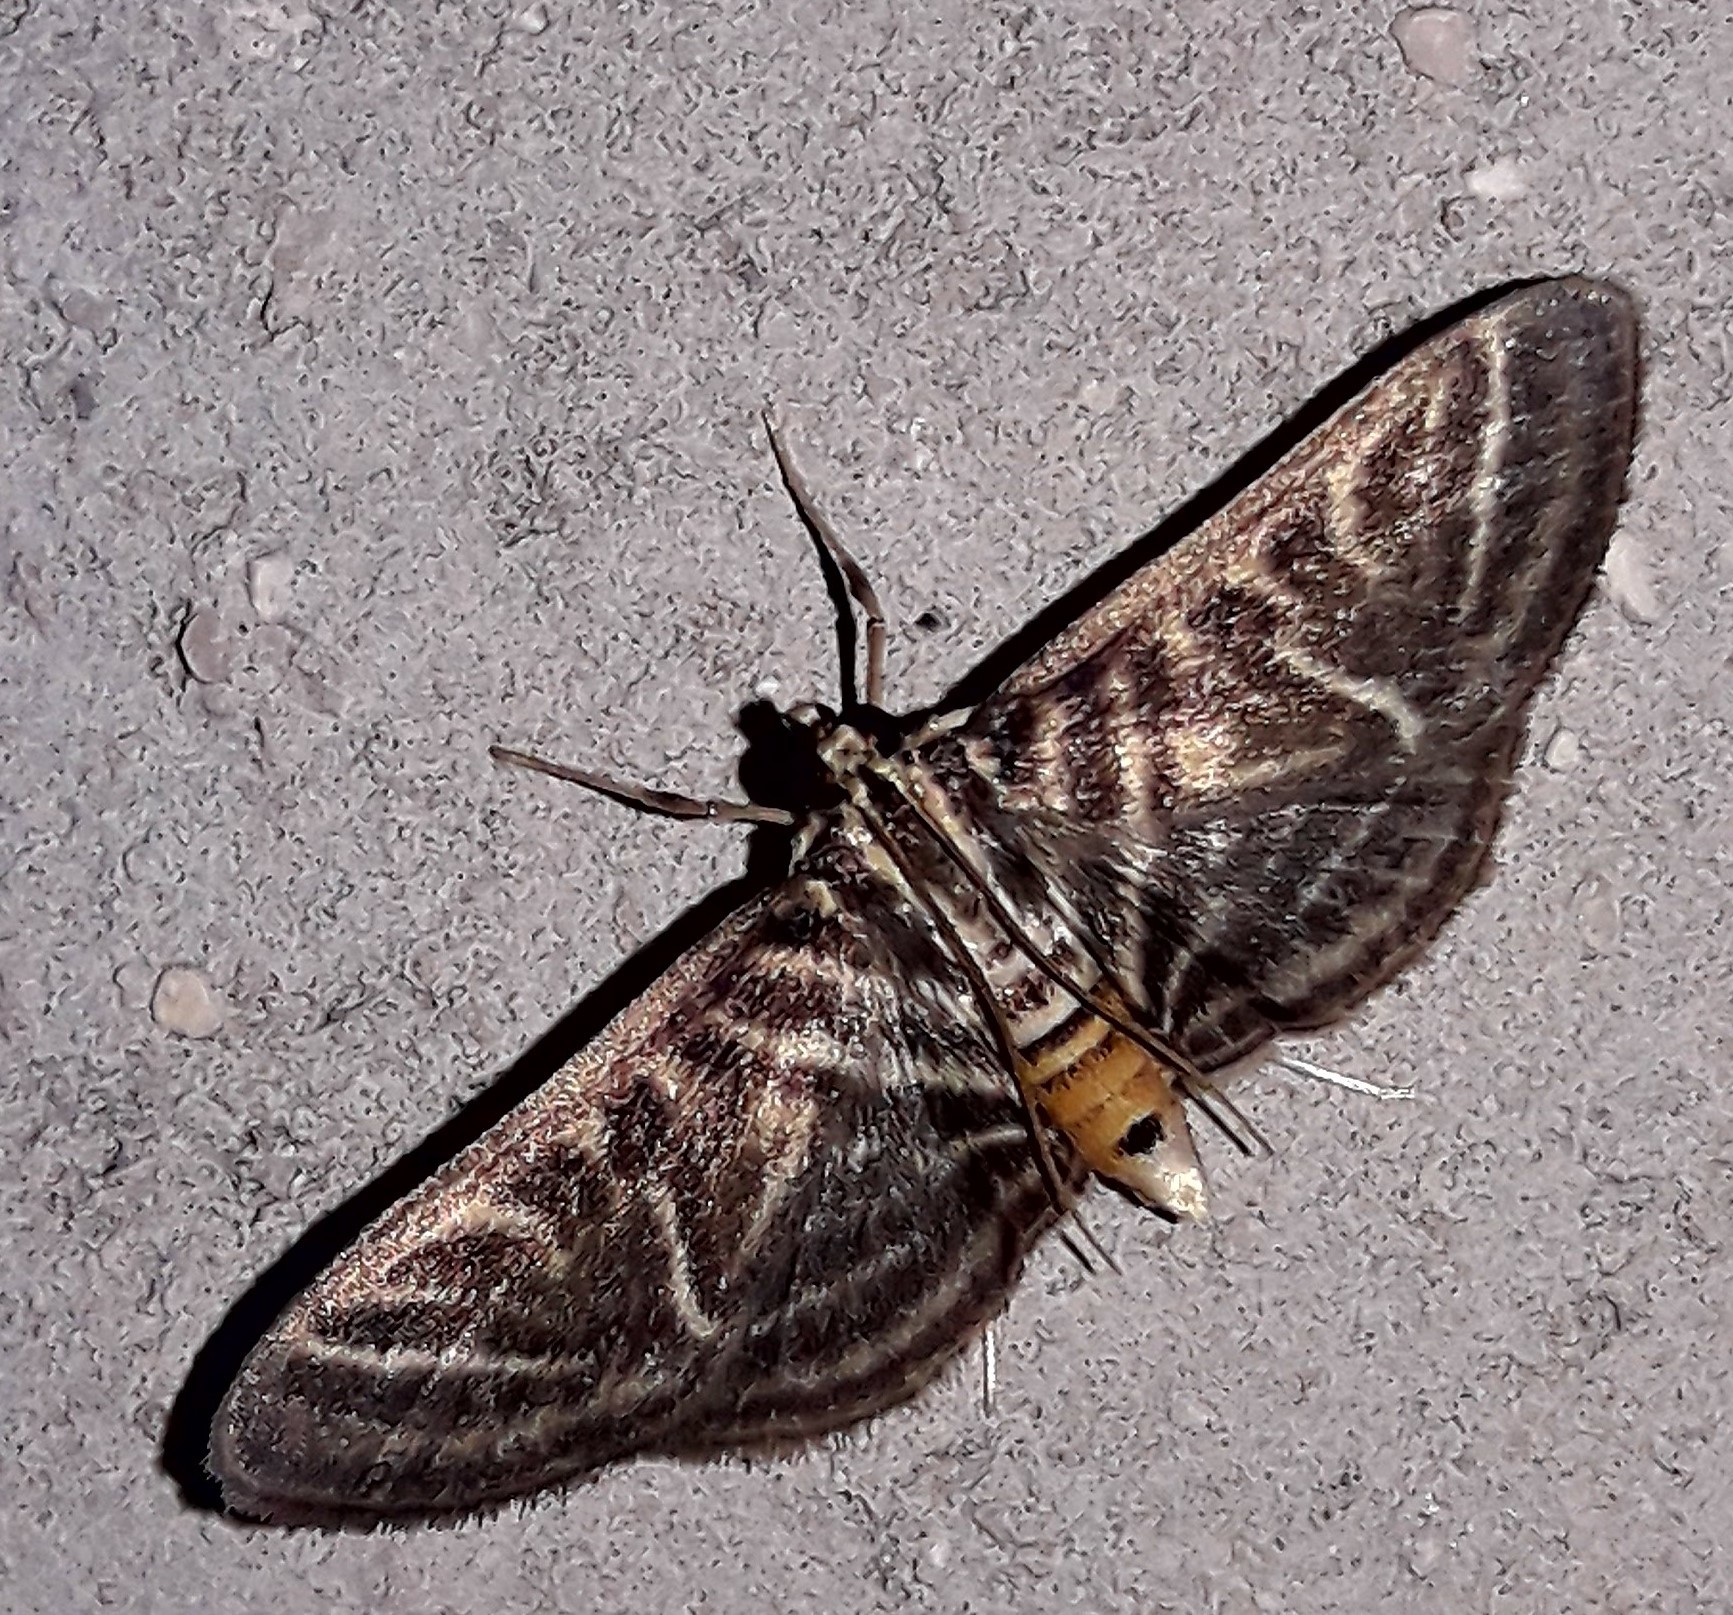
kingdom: Animalia
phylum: Arthropoda
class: Insecta
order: Lepidoptera
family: Crambidae
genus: Zebronia
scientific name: Zebronia
